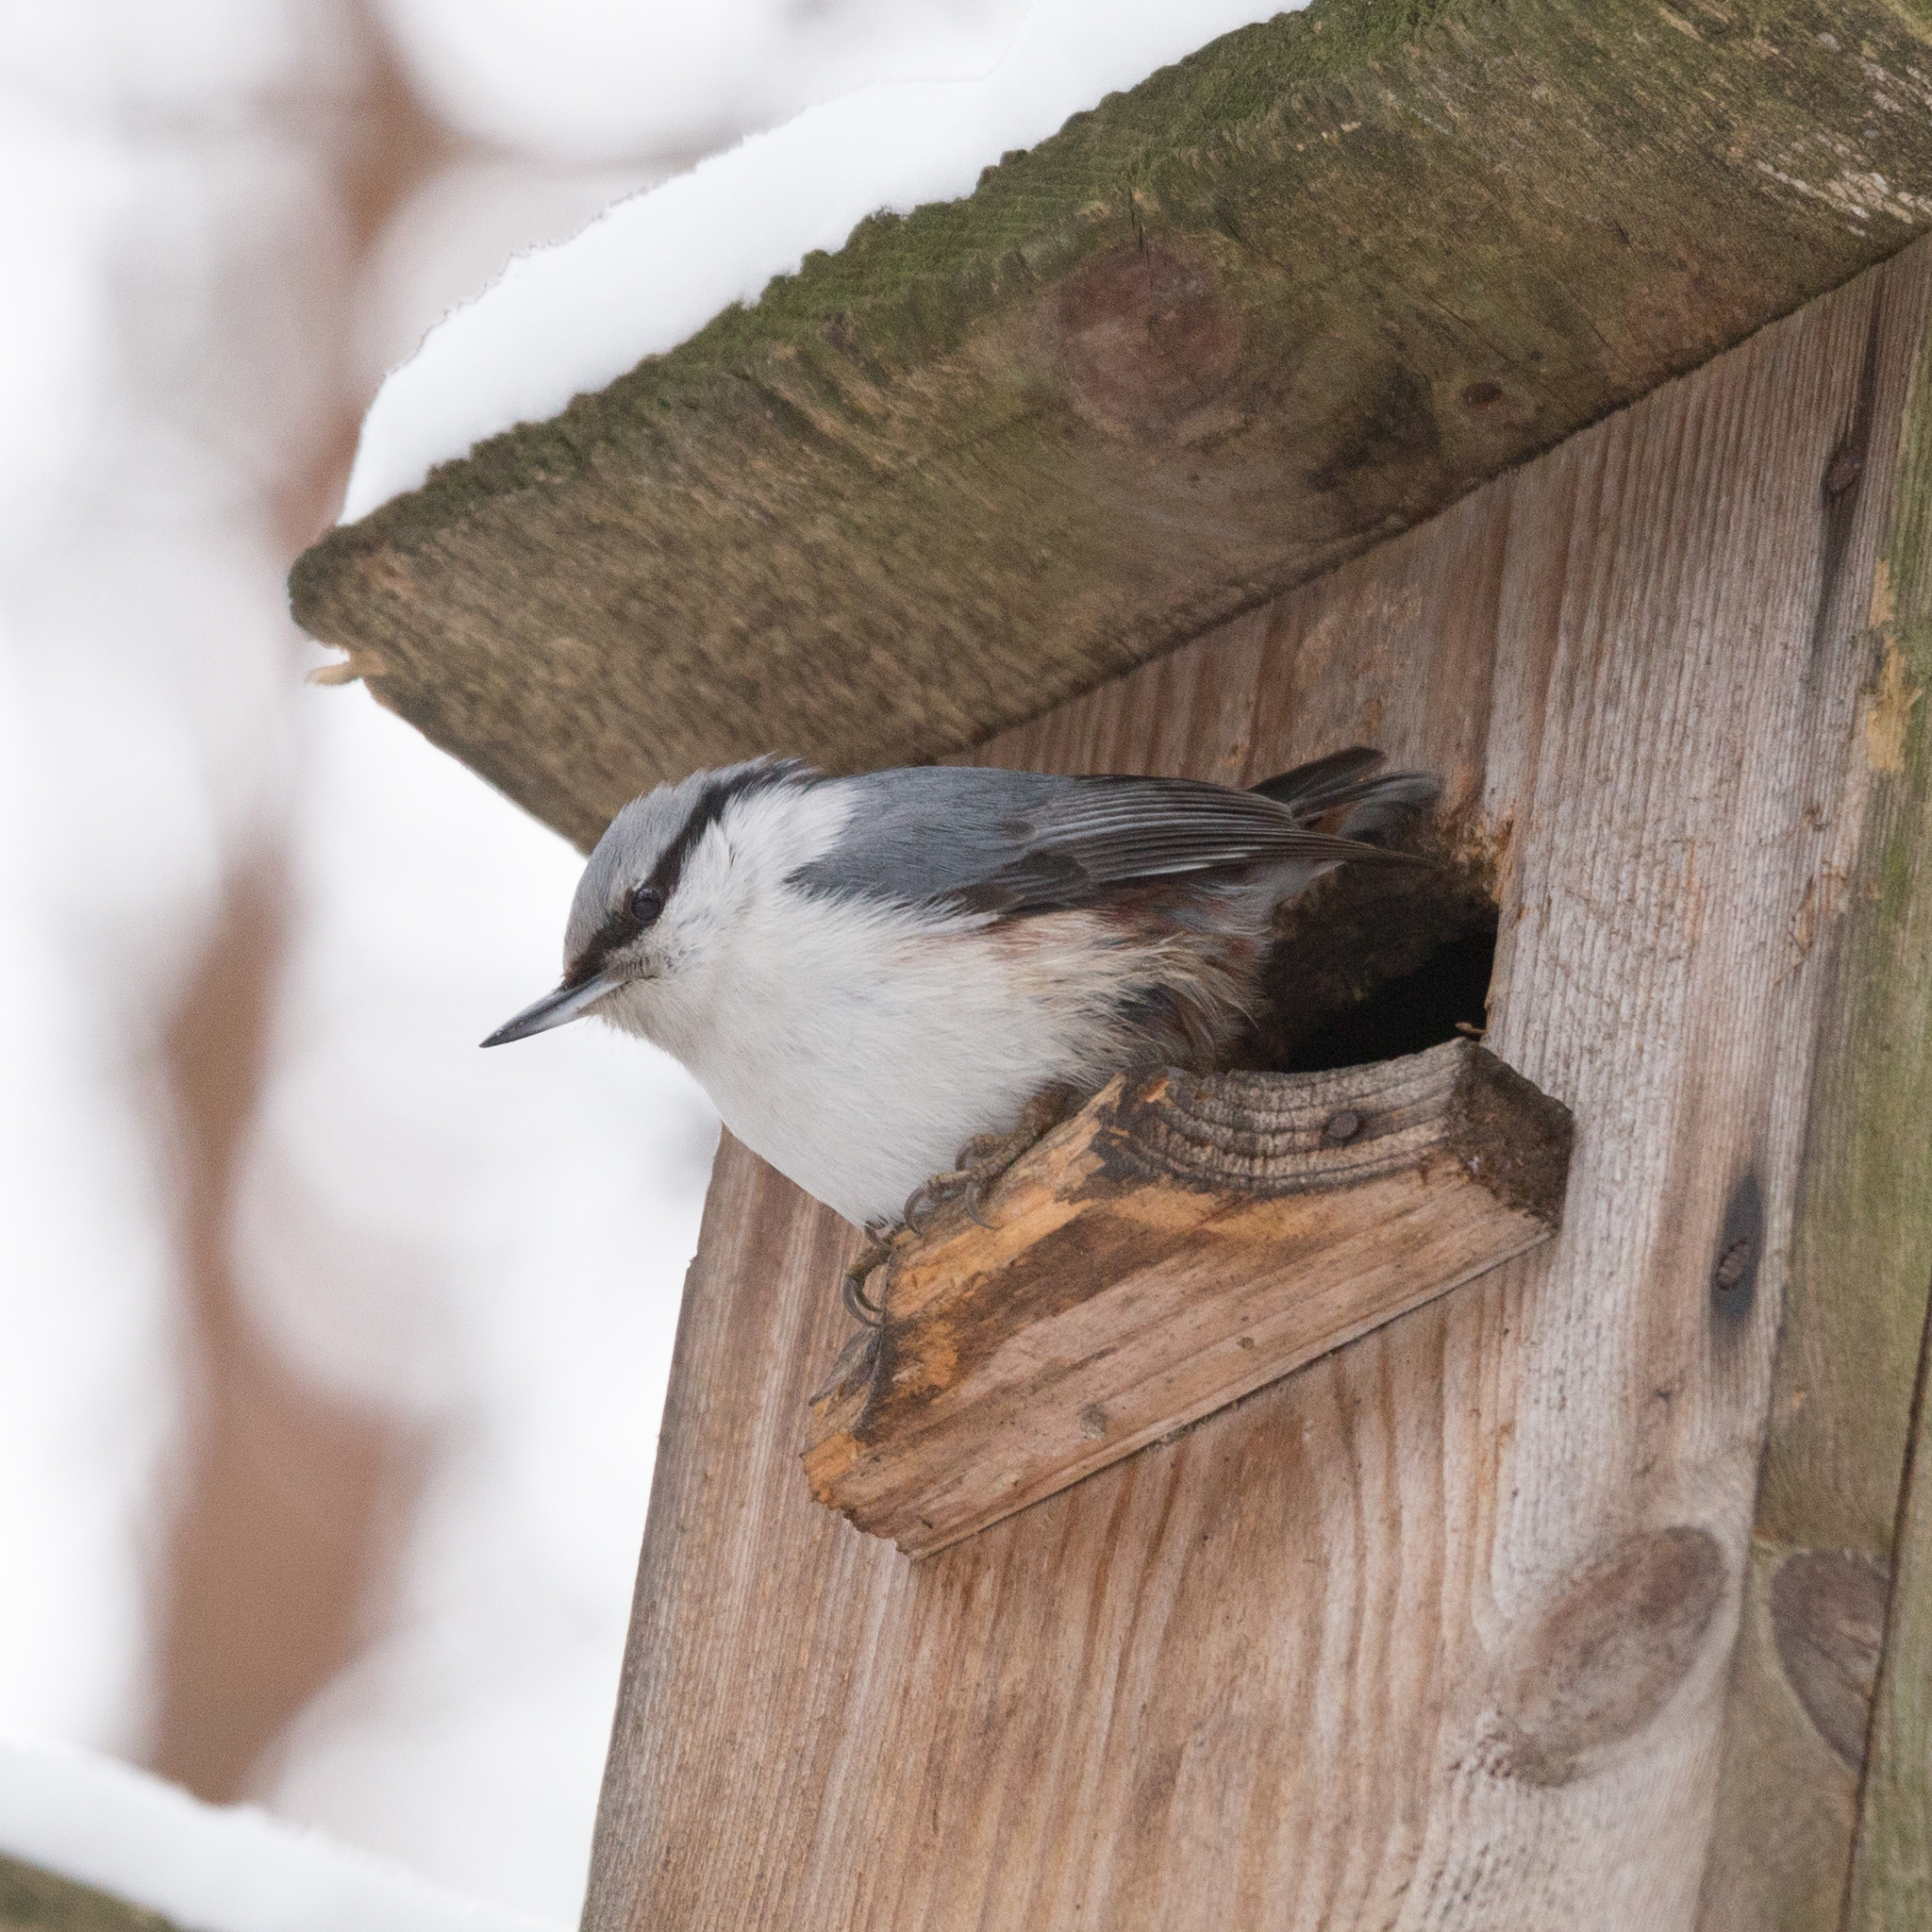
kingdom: Animalia
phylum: Chordata
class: Aves
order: Passeriformes
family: Sittidae
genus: Sitta
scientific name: Sitta europaea
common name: Eurasian nuthatch
